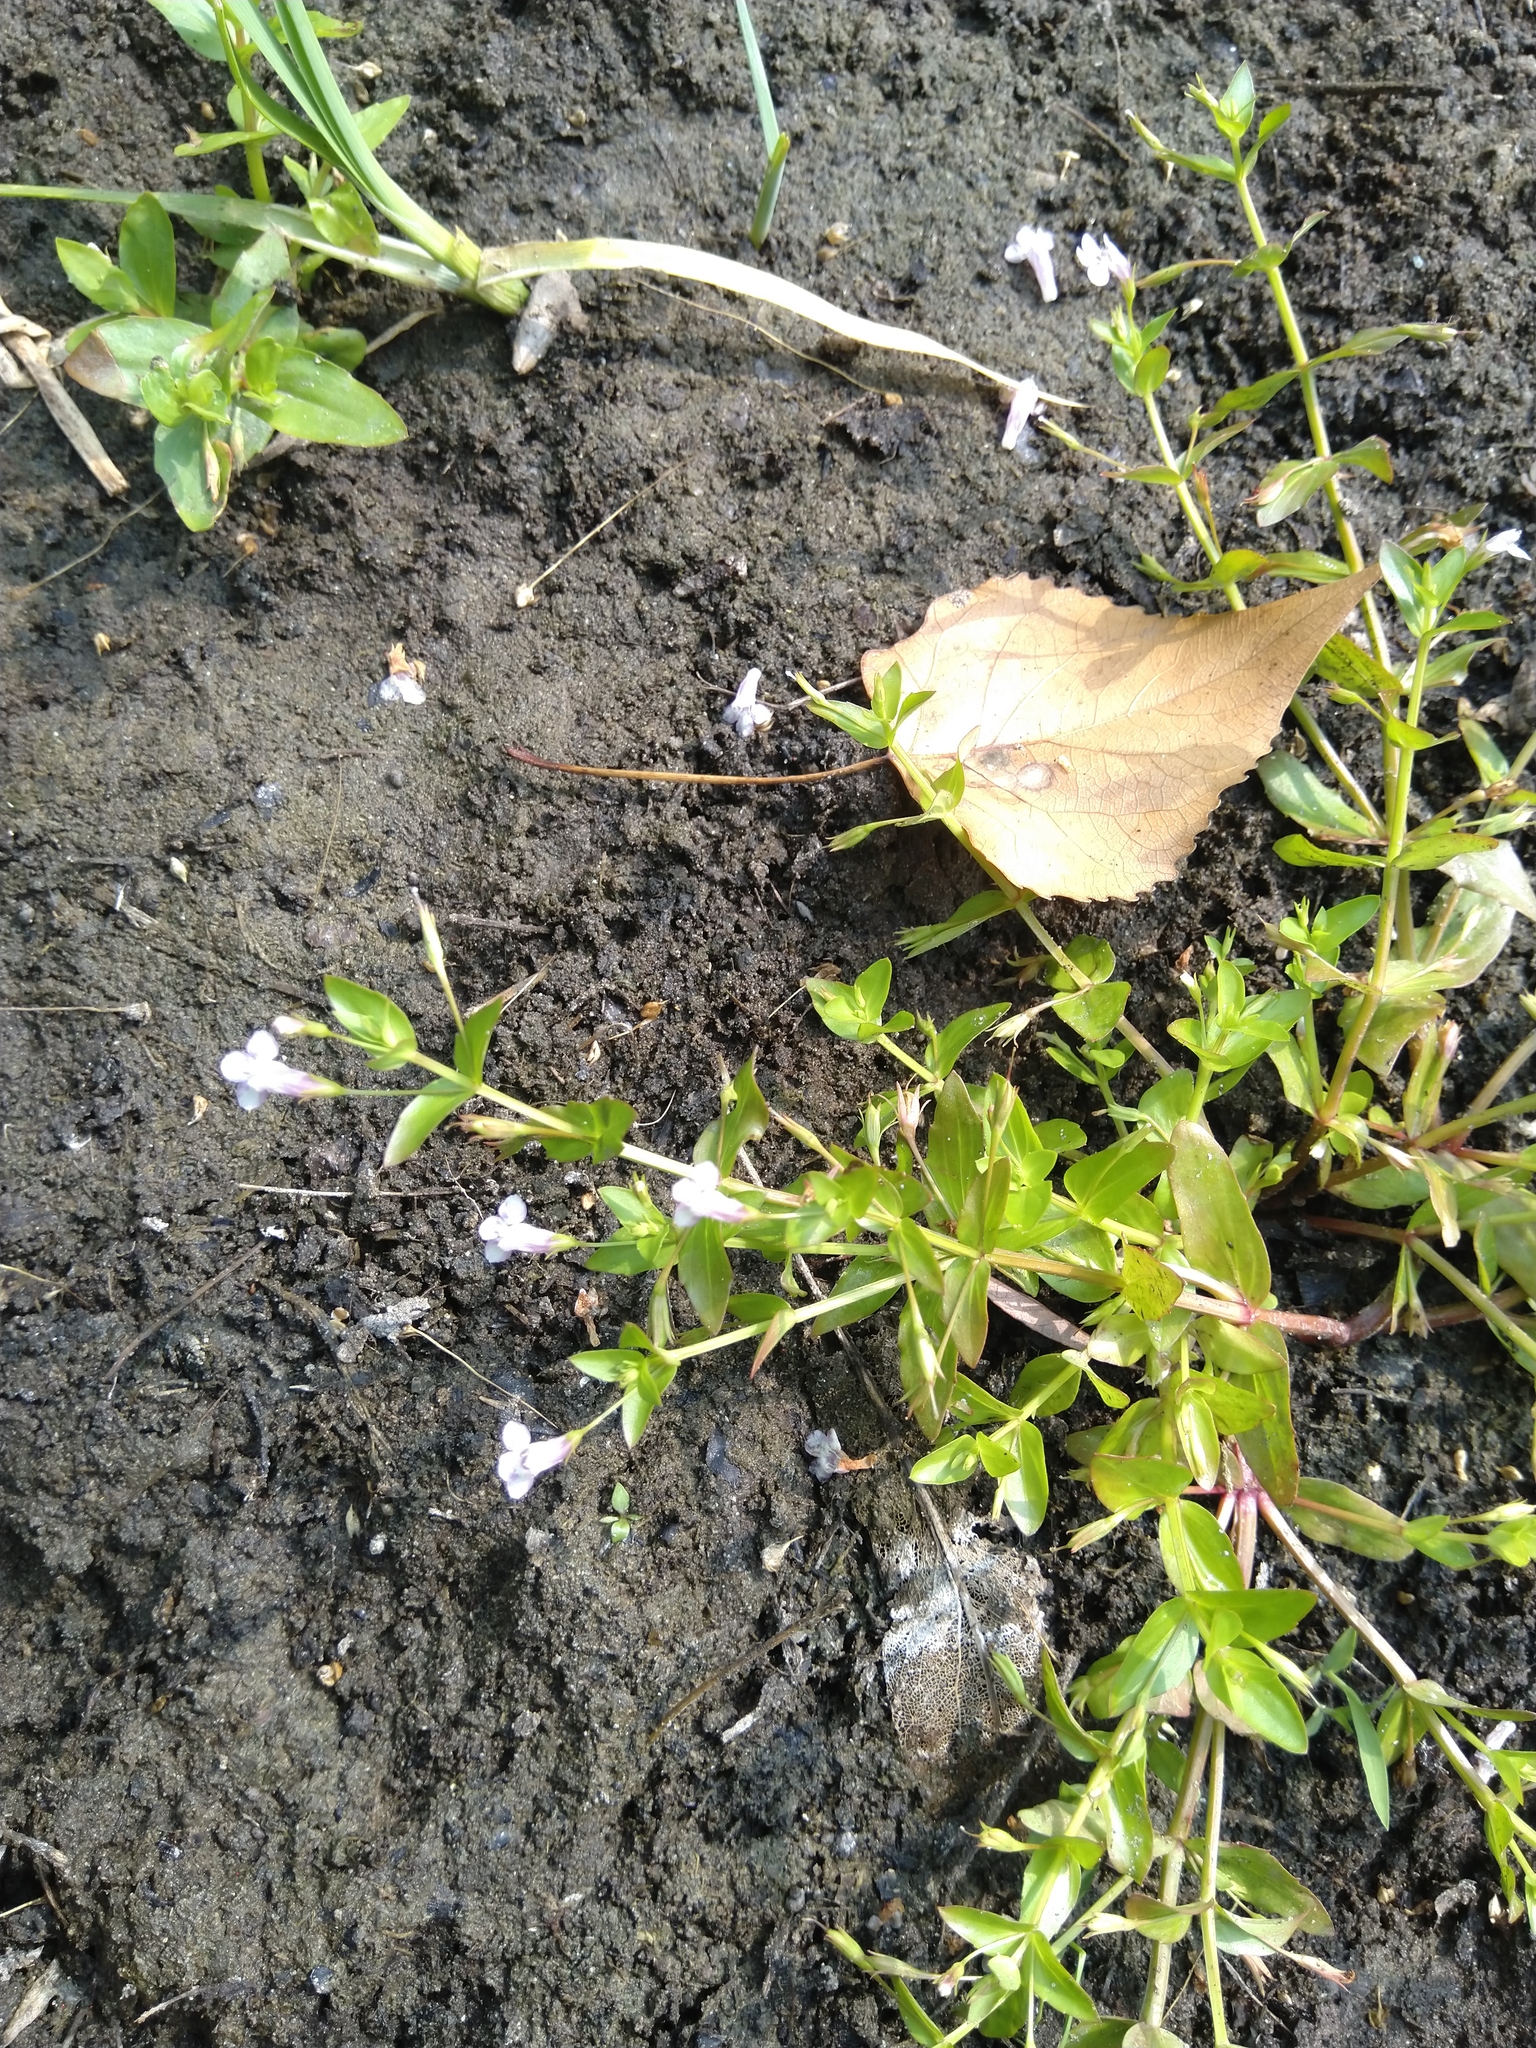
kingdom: Plantae
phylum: Tracheophyta
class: Magnoliopsida
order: Lamiales
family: Linderniaceae
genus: Lindernia
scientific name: Lindernia dubia
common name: Annual false pimpernel
